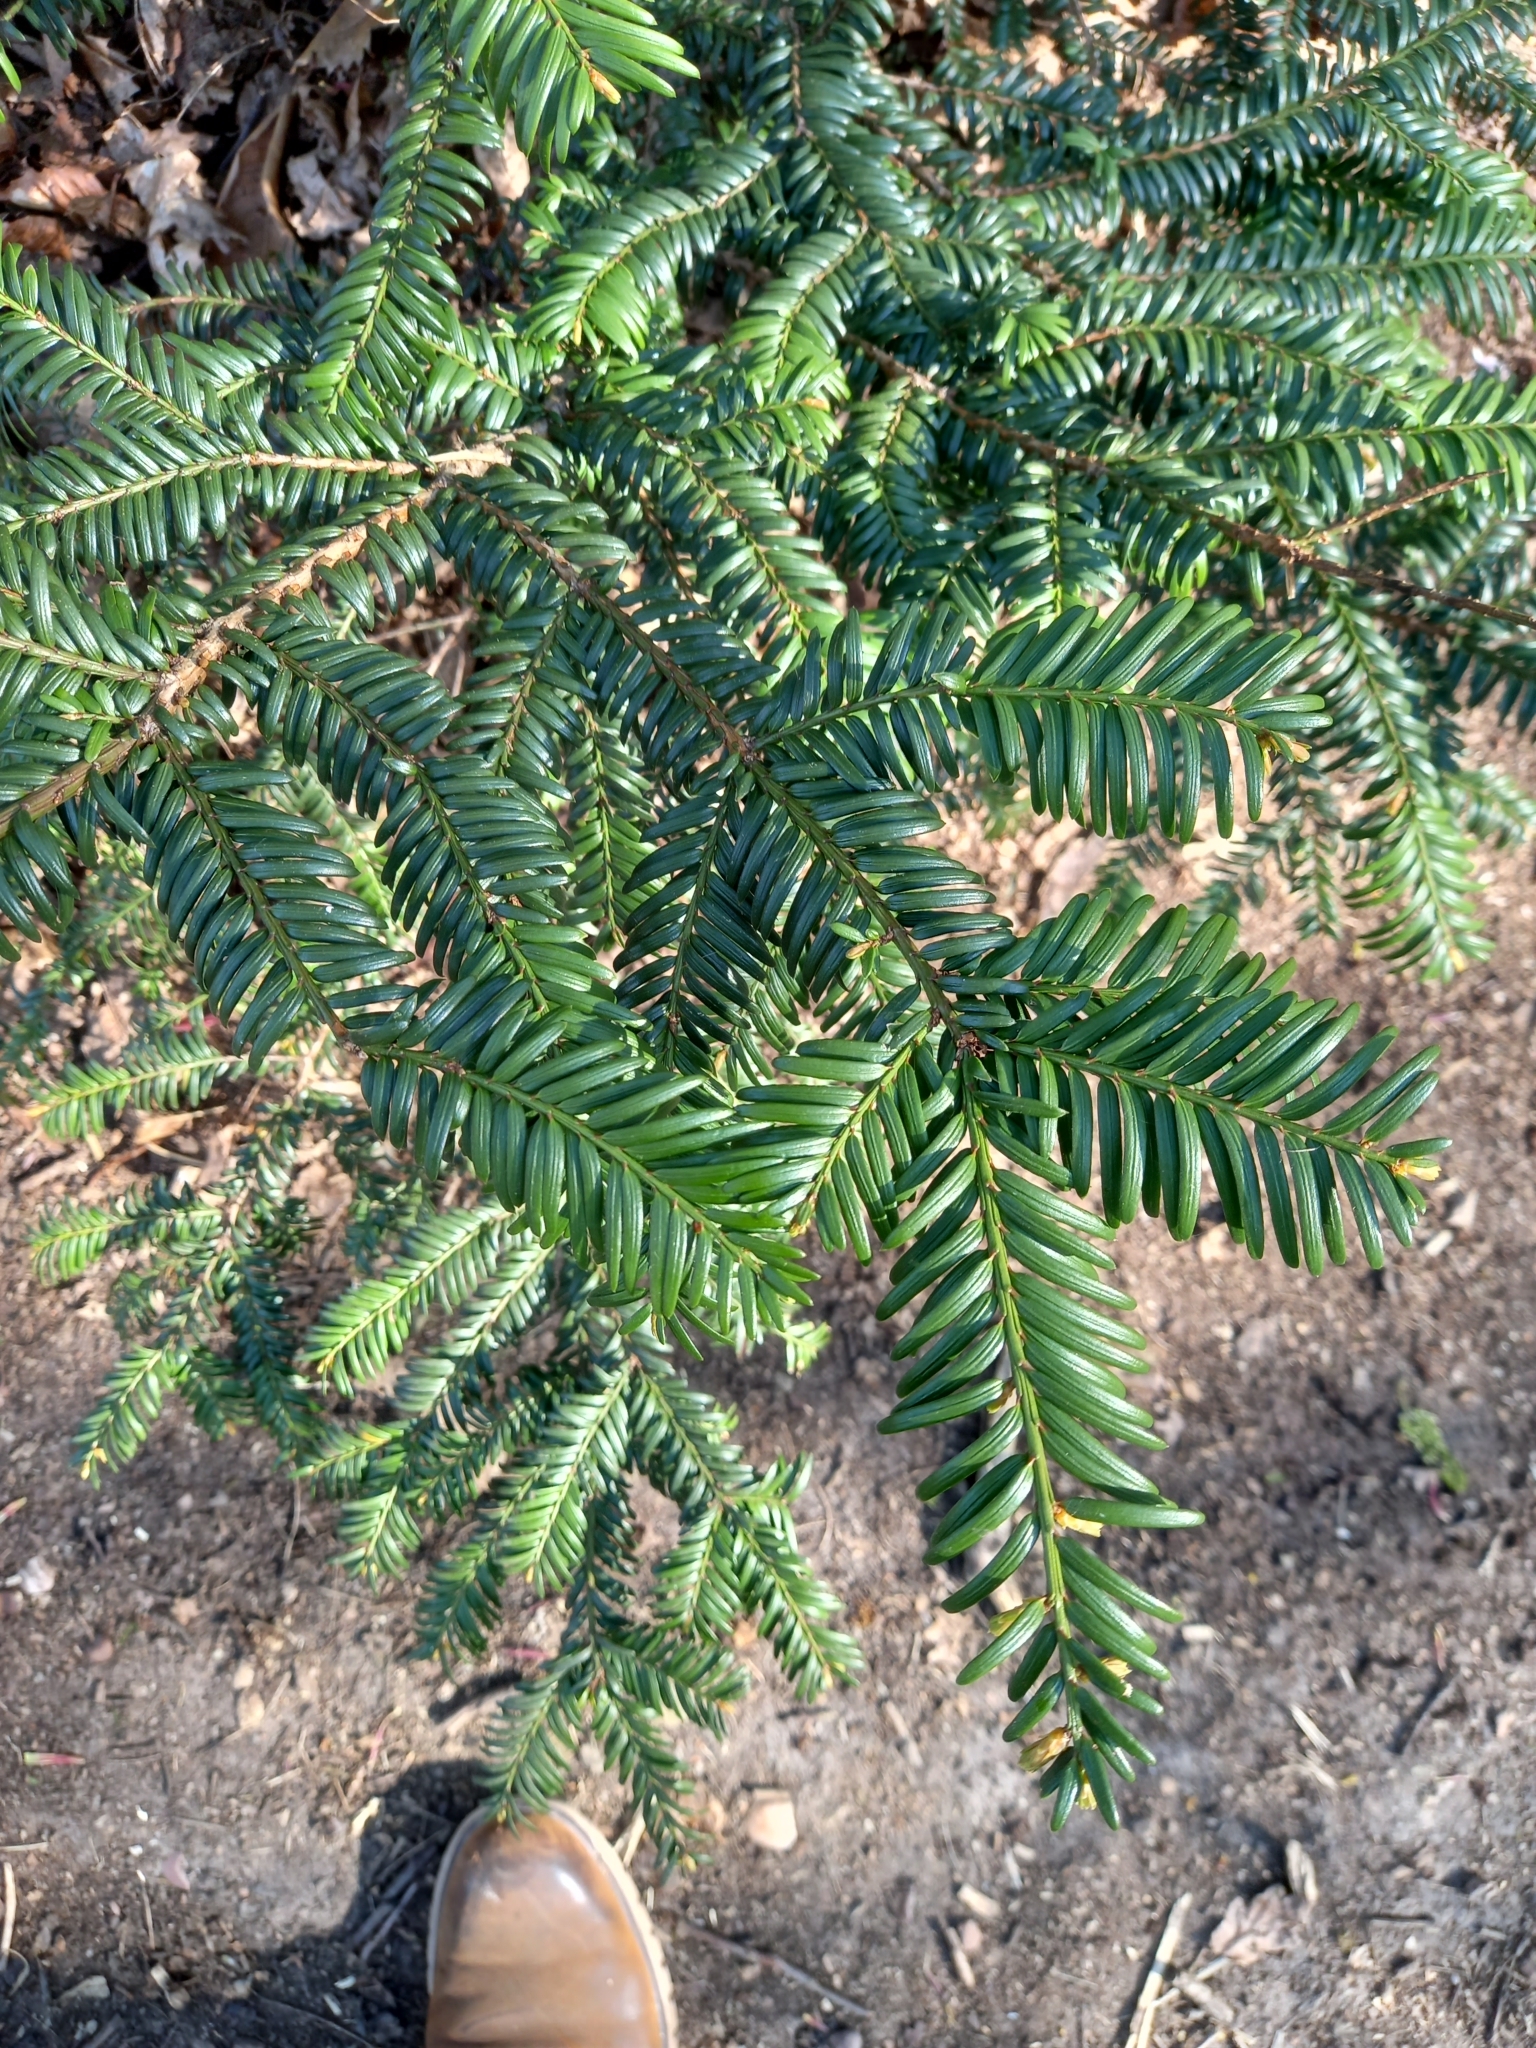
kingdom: Plantae
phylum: Tracheophyta
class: Pinopsida
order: Pinales
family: Taxaceae
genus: Taxus
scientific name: Taxus baccata
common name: Yew
